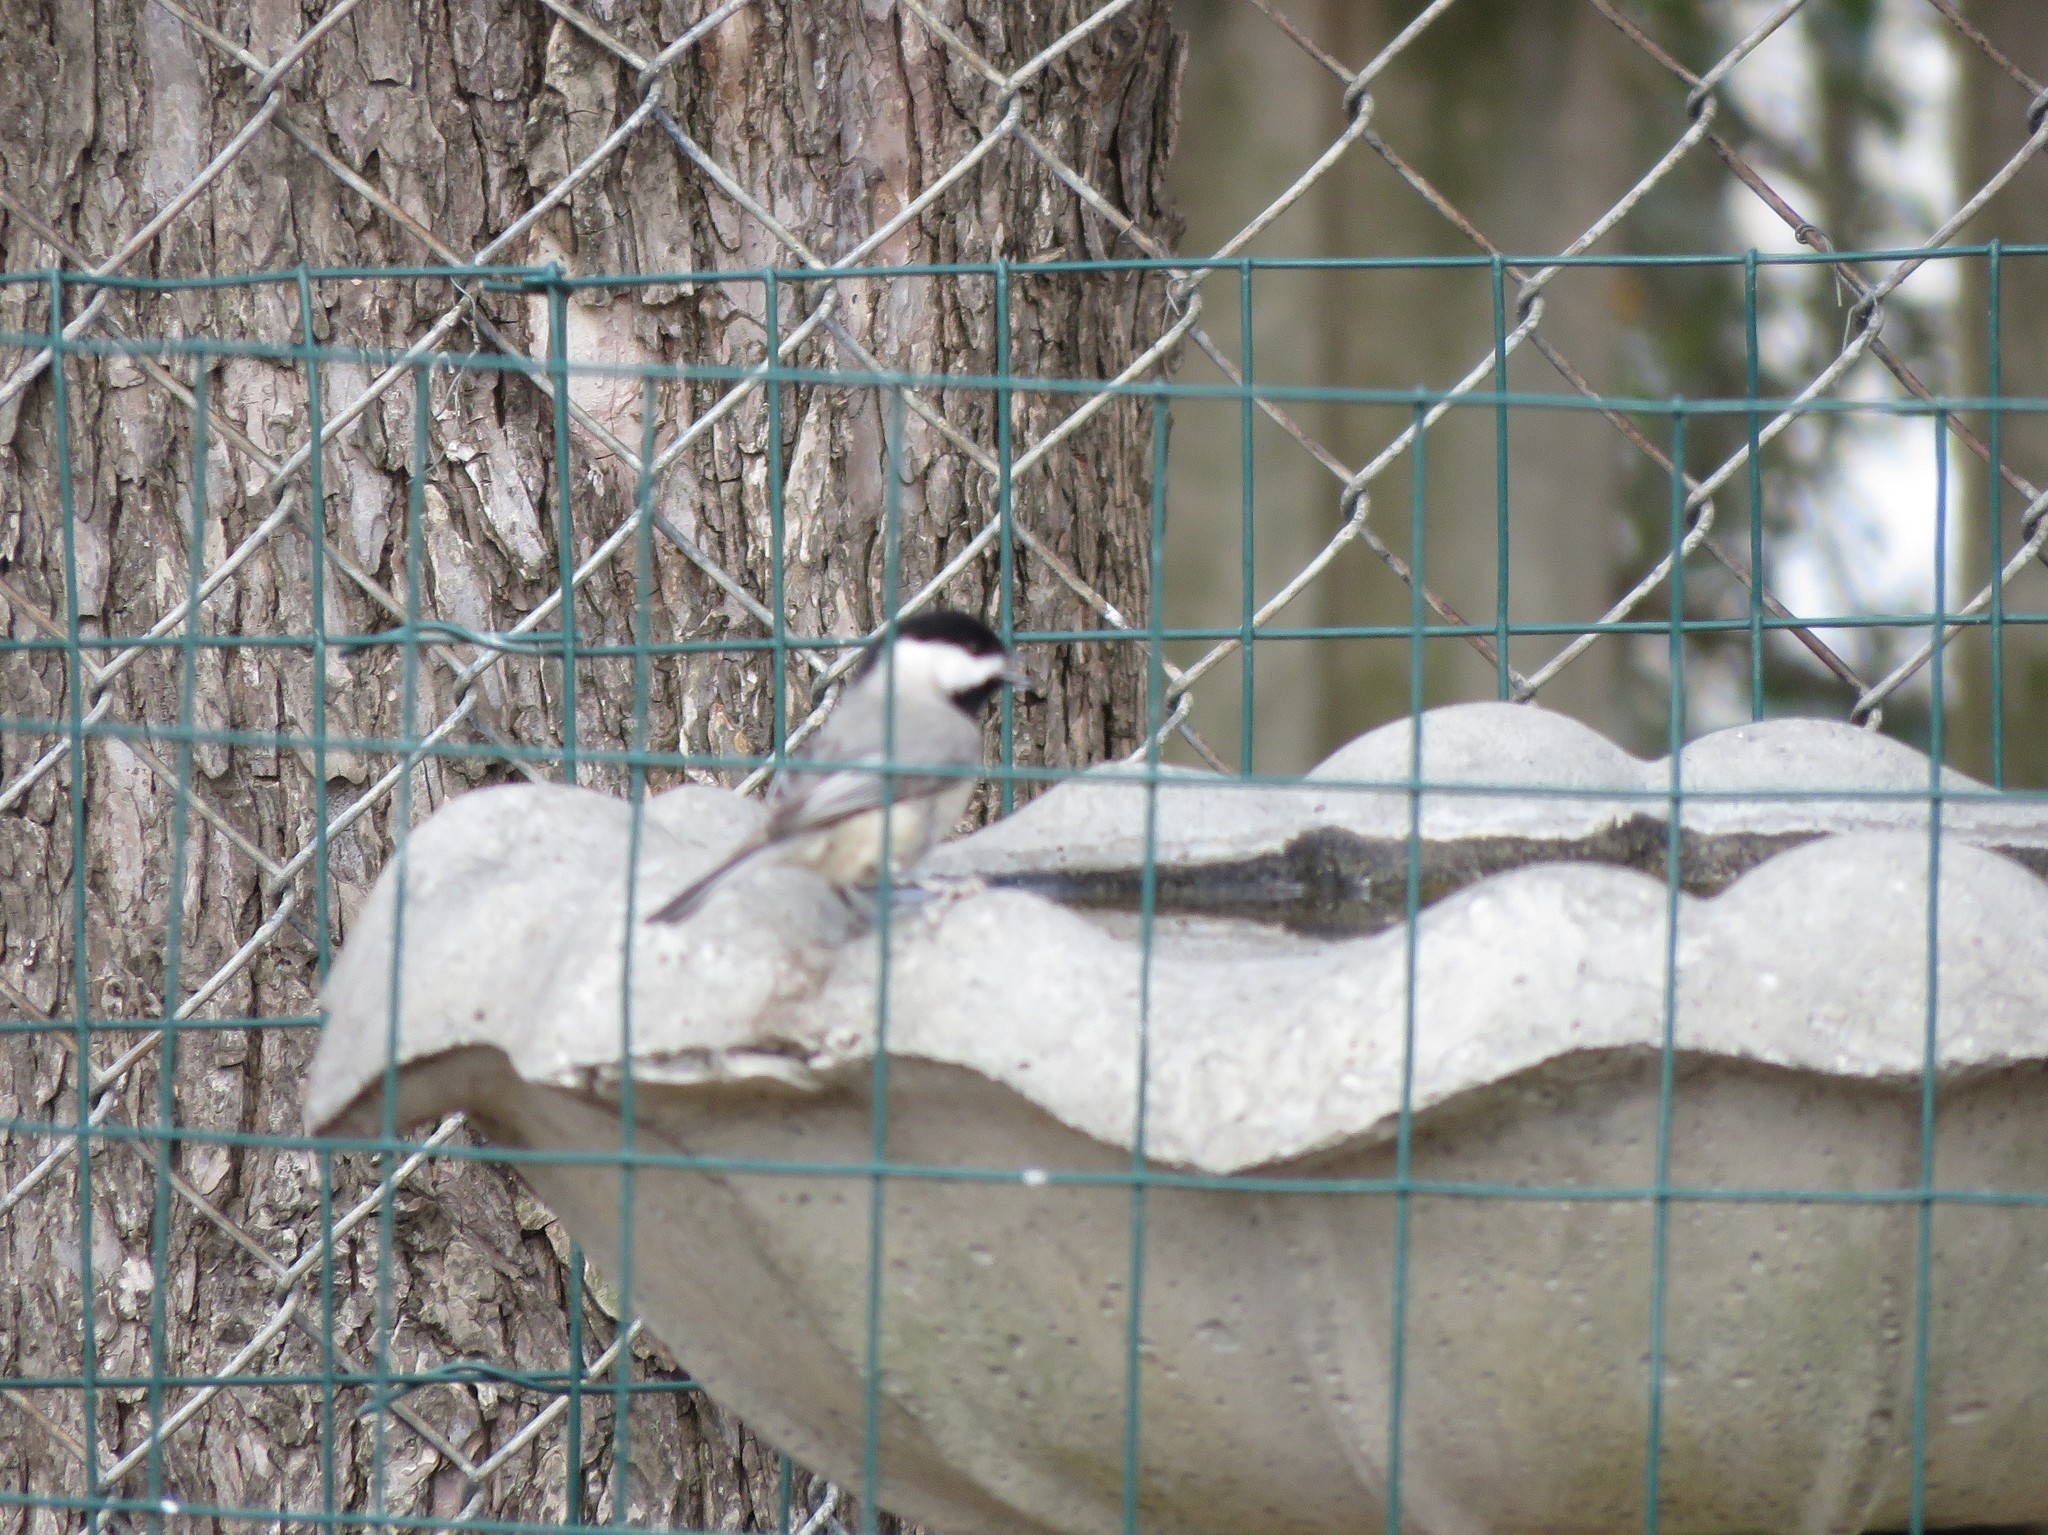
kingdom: Animalia
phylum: Chordata
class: Aves
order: Passeriformes
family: Paridae
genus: Poecile
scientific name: Poecile carolinensis
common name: Carolina chickadee
